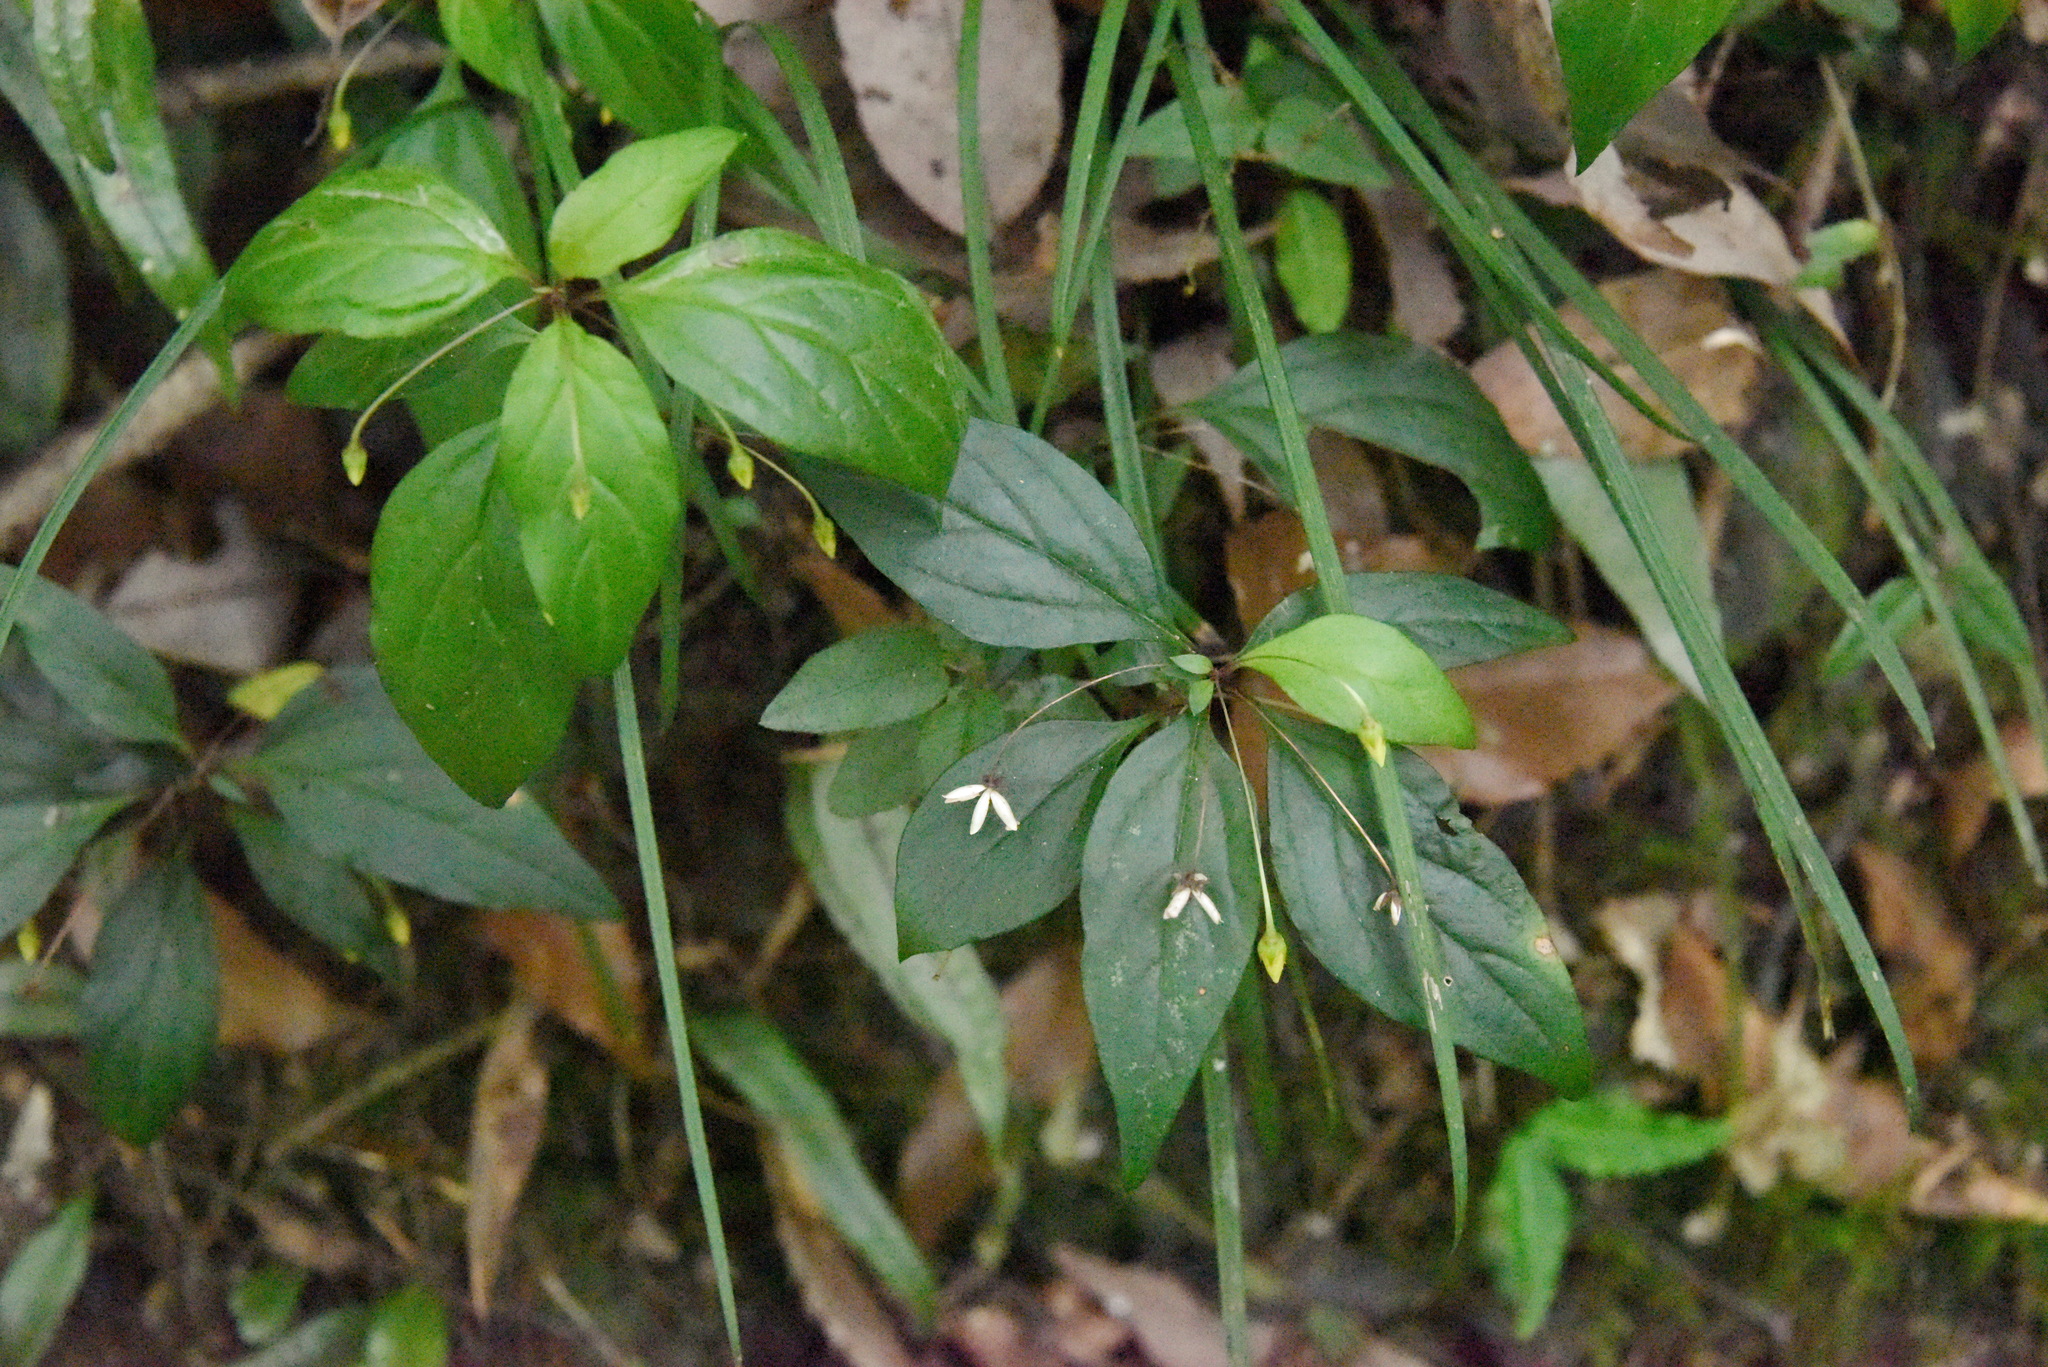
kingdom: Plantae
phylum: Tracheophyta
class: Magnoliopsida
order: Ericales
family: Primulaceae
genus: Lysimachia
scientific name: Lysimachia ardisioides
